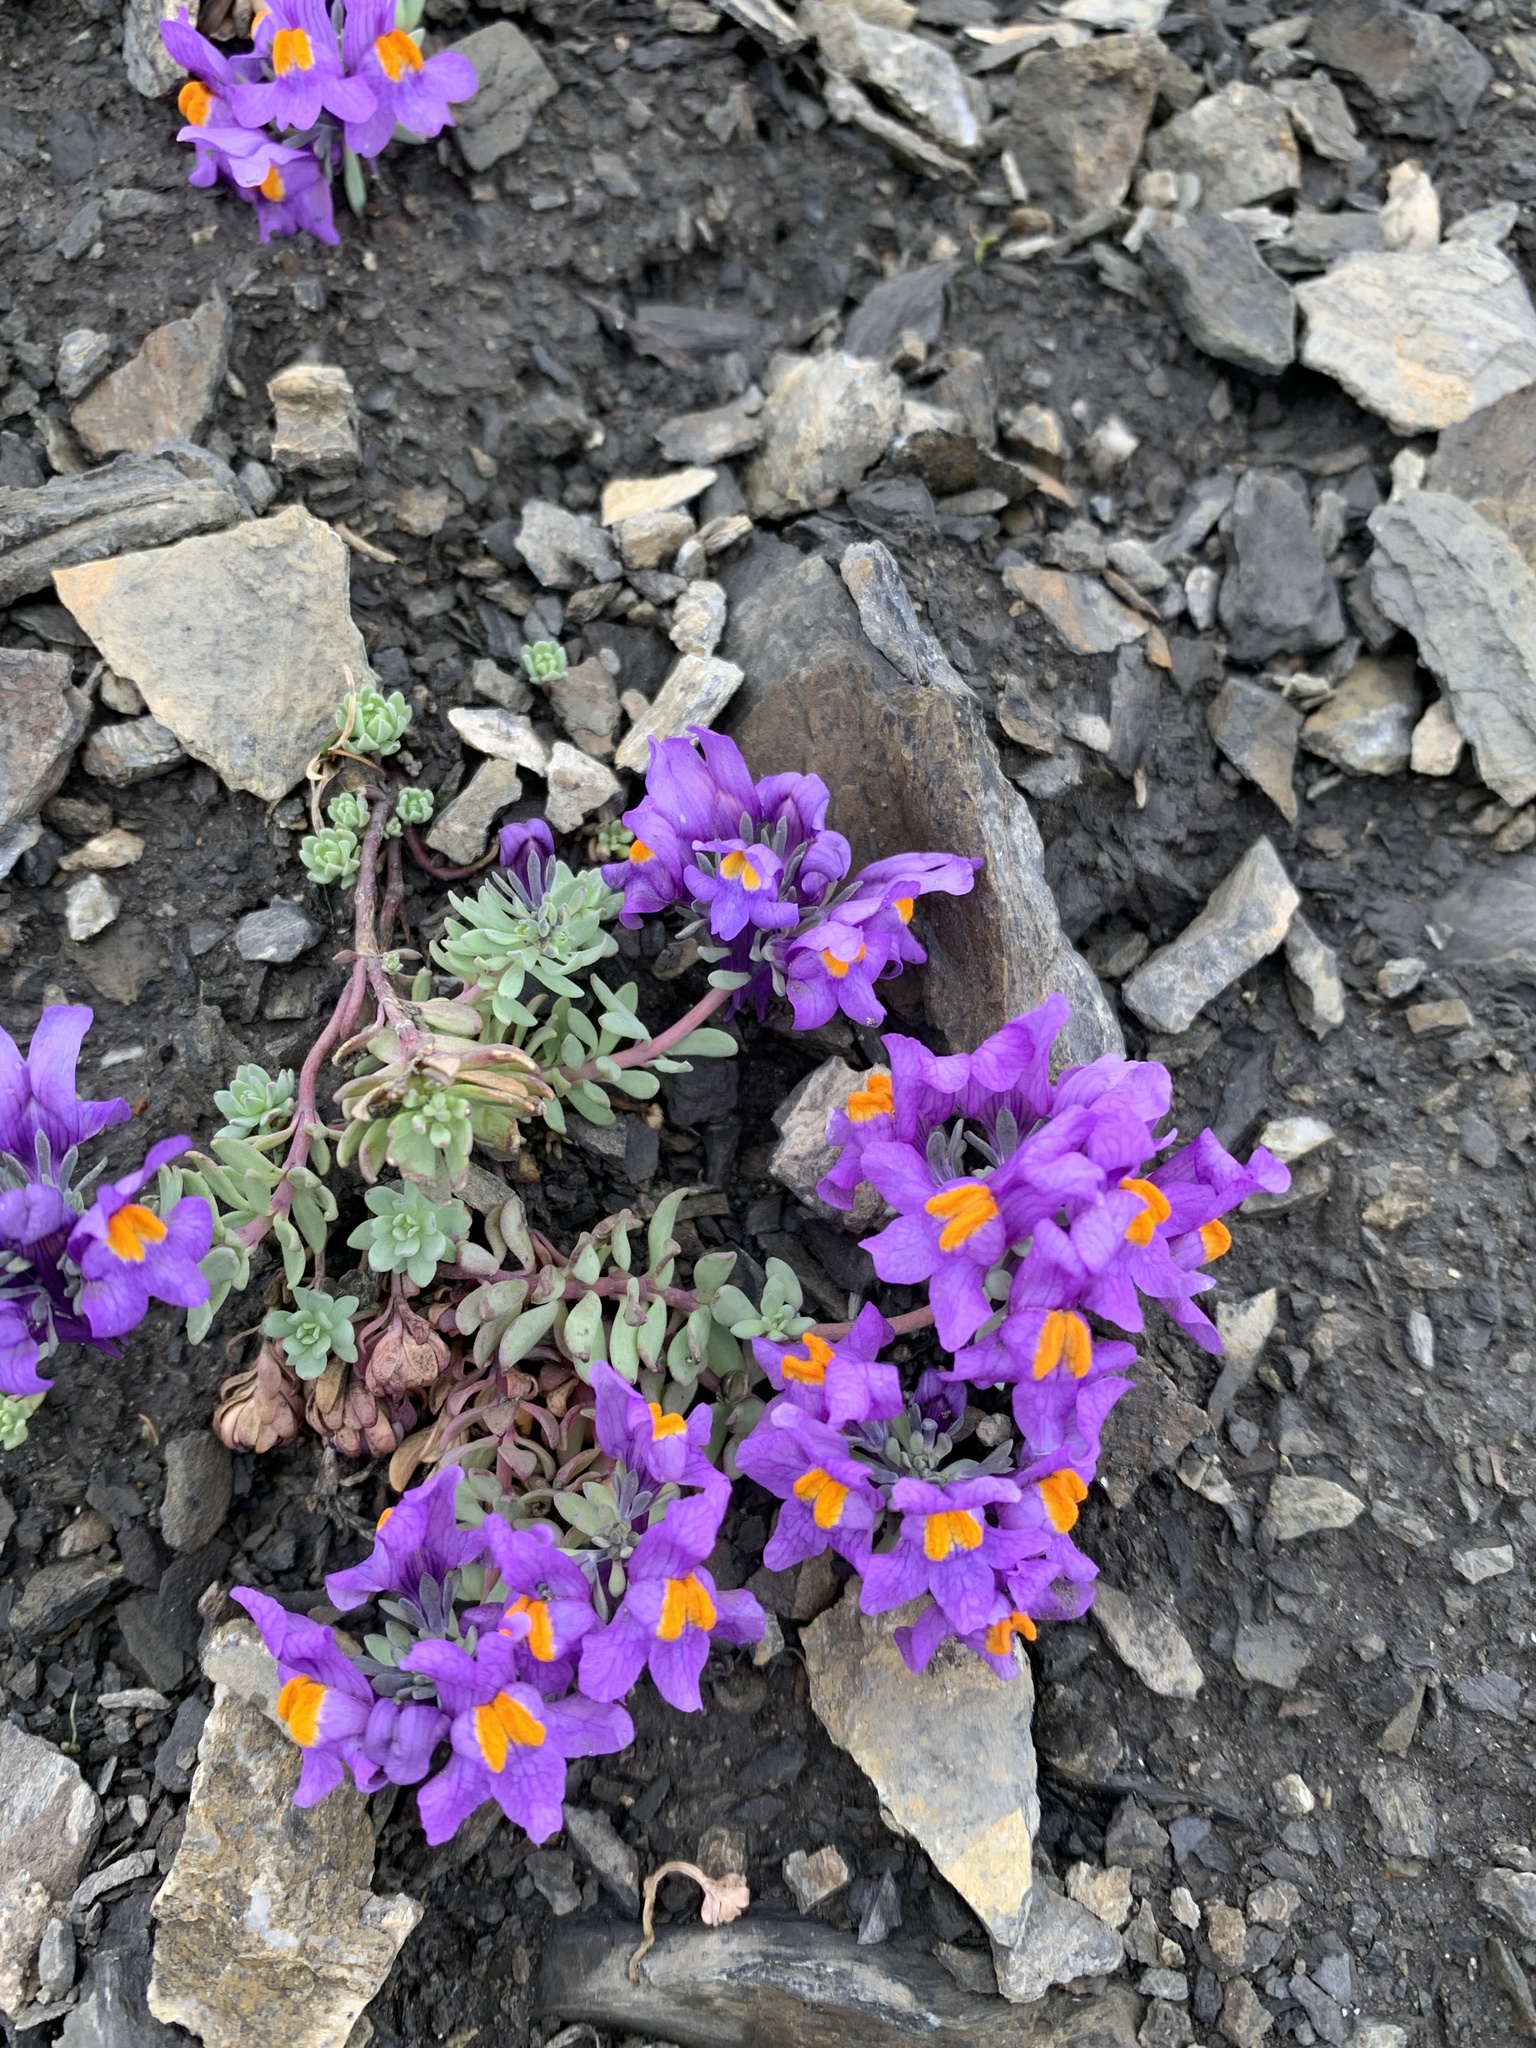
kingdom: Plantae
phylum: Tracheophyta
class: Magnoliopsida
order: Lamiales
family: Plantaginaceae
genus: Linaria
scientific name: Linaria alpina
